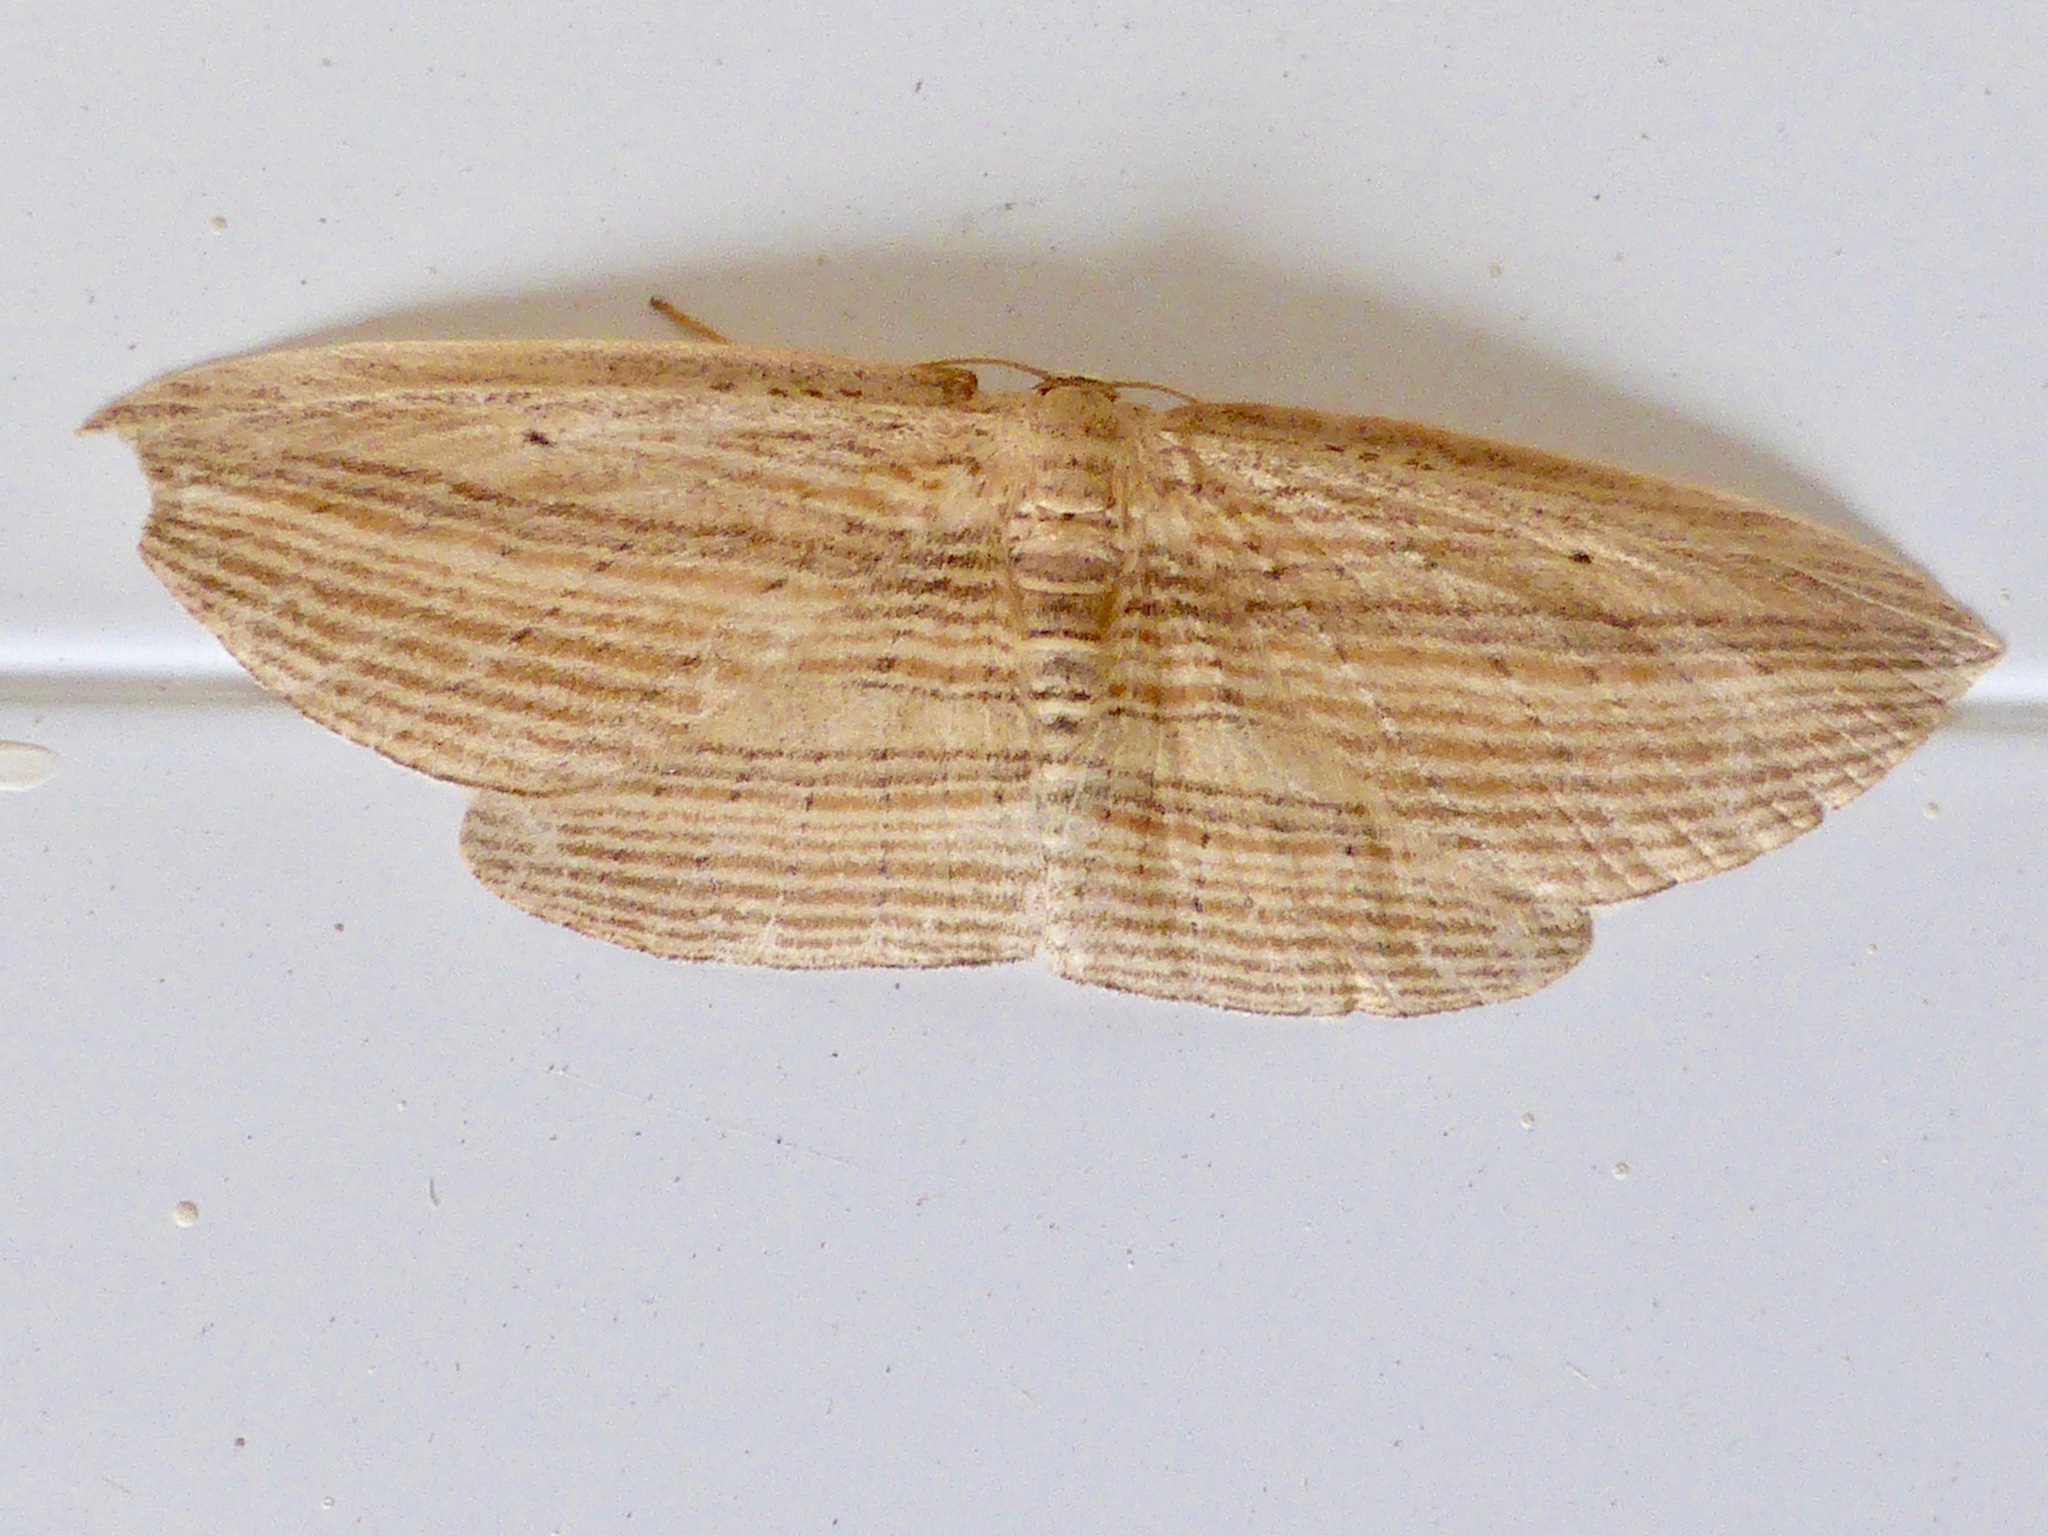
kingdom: Animalia
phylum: Arthropoda
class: Insecta
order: Lepidoptera
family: Geometridae
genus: Epiphryne
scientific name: Epiphryne verriculata
